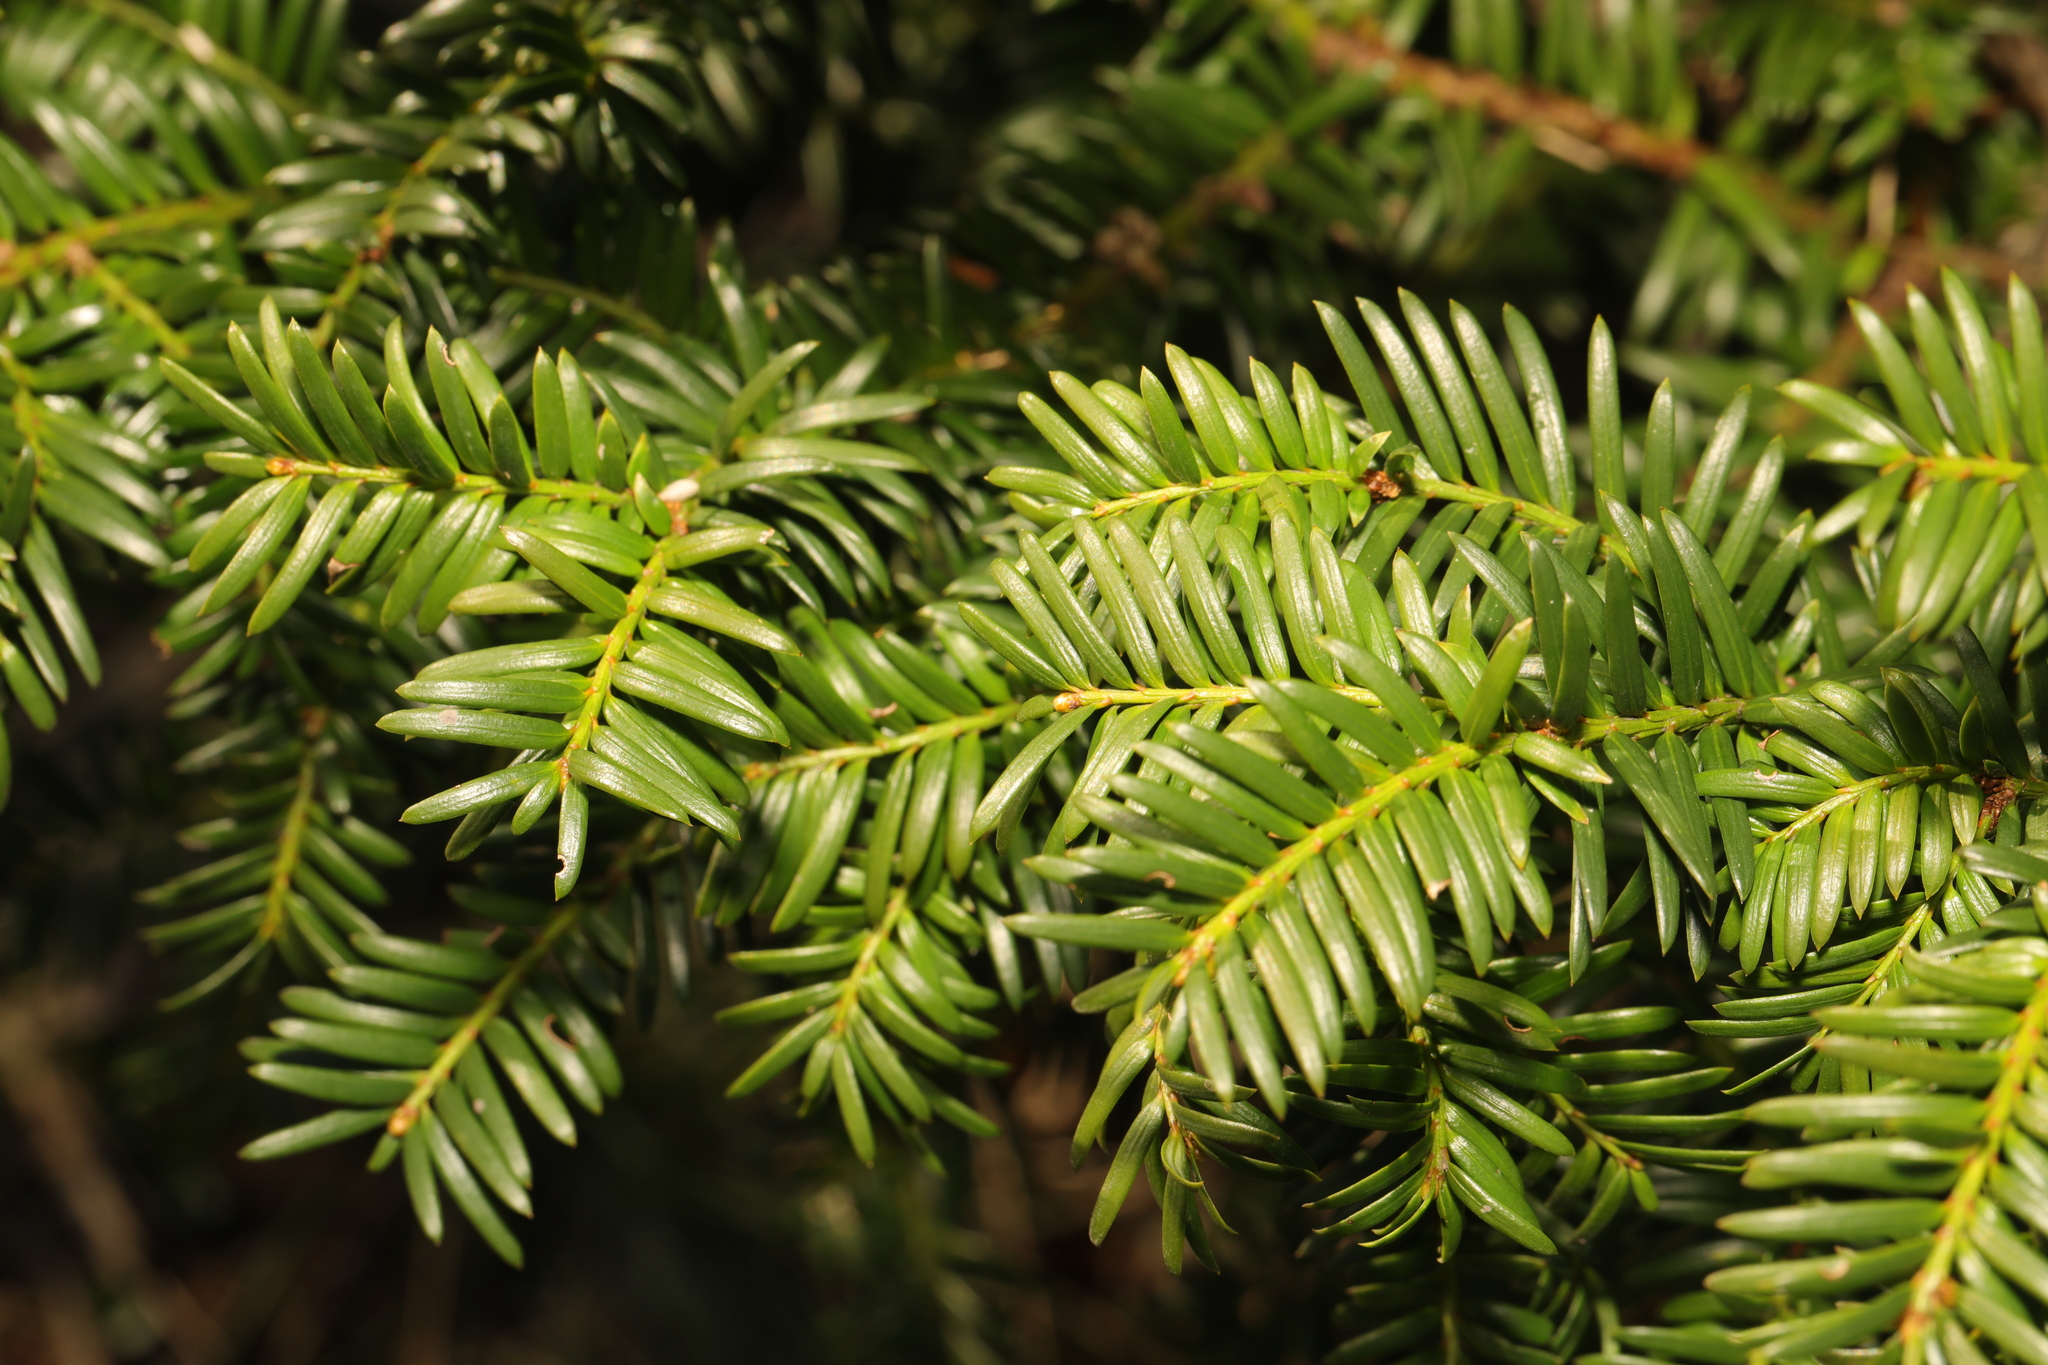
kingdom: Plantae
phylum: Tracheophyta
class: Pinopsida
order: Pinales
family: Taxaceae
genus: Taxus
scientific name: Taxus baccata
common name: Yew
